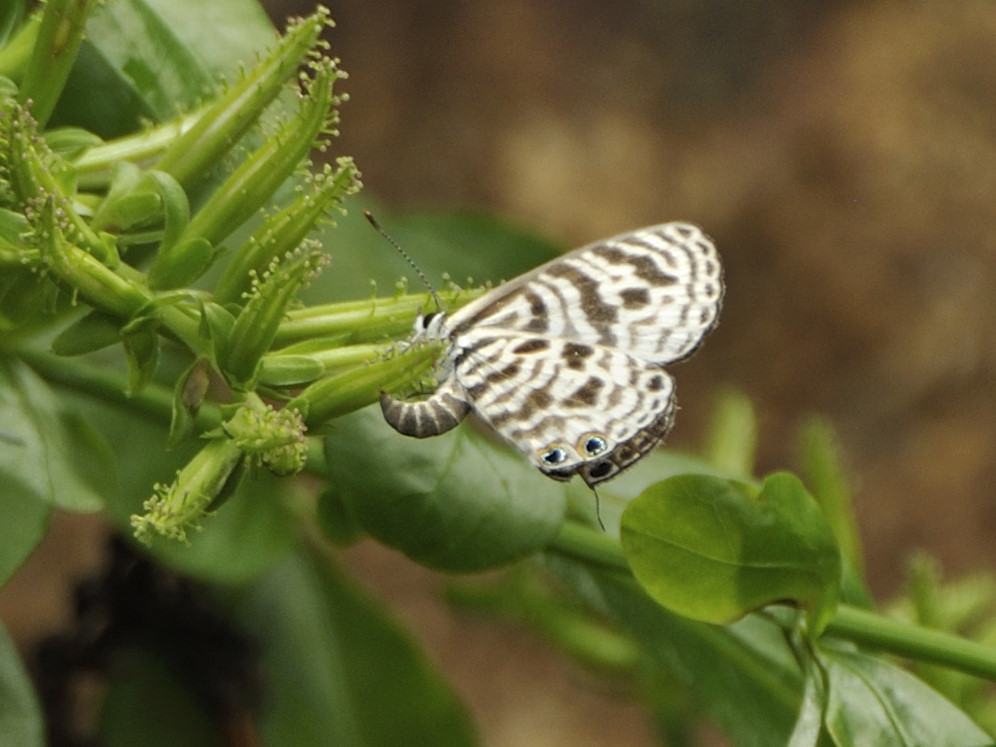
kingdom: Animalia
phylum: Arthropoda
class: Insecta
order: Lepidoptera
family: Lycaenidae
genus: Leptotes
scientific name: Leptotes
